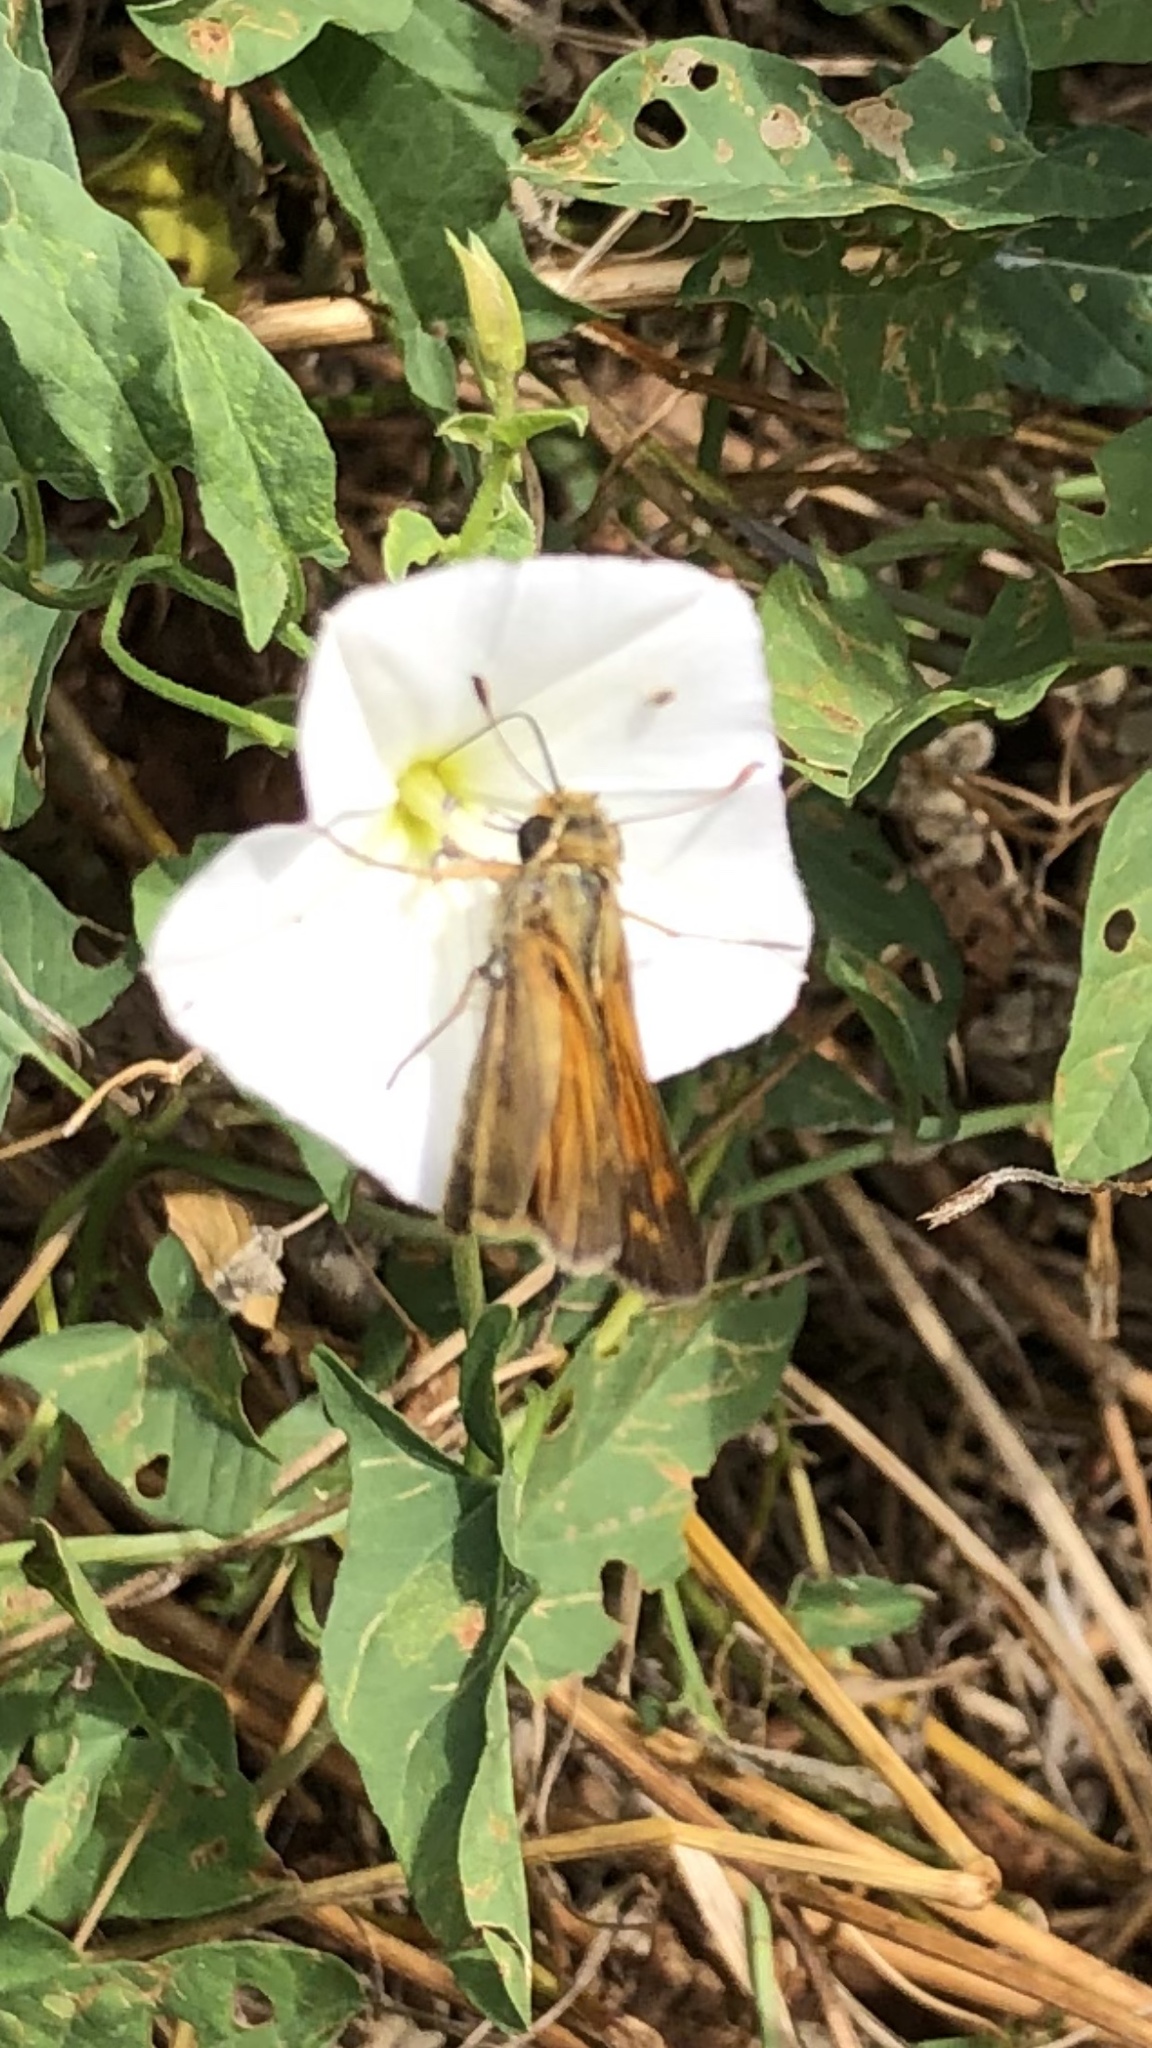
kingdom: Animalia
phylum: Arthropoda
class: Insecta
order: Lepidoptera
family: Hesperiidae
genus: Atalopedes
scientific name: Atalopedes
